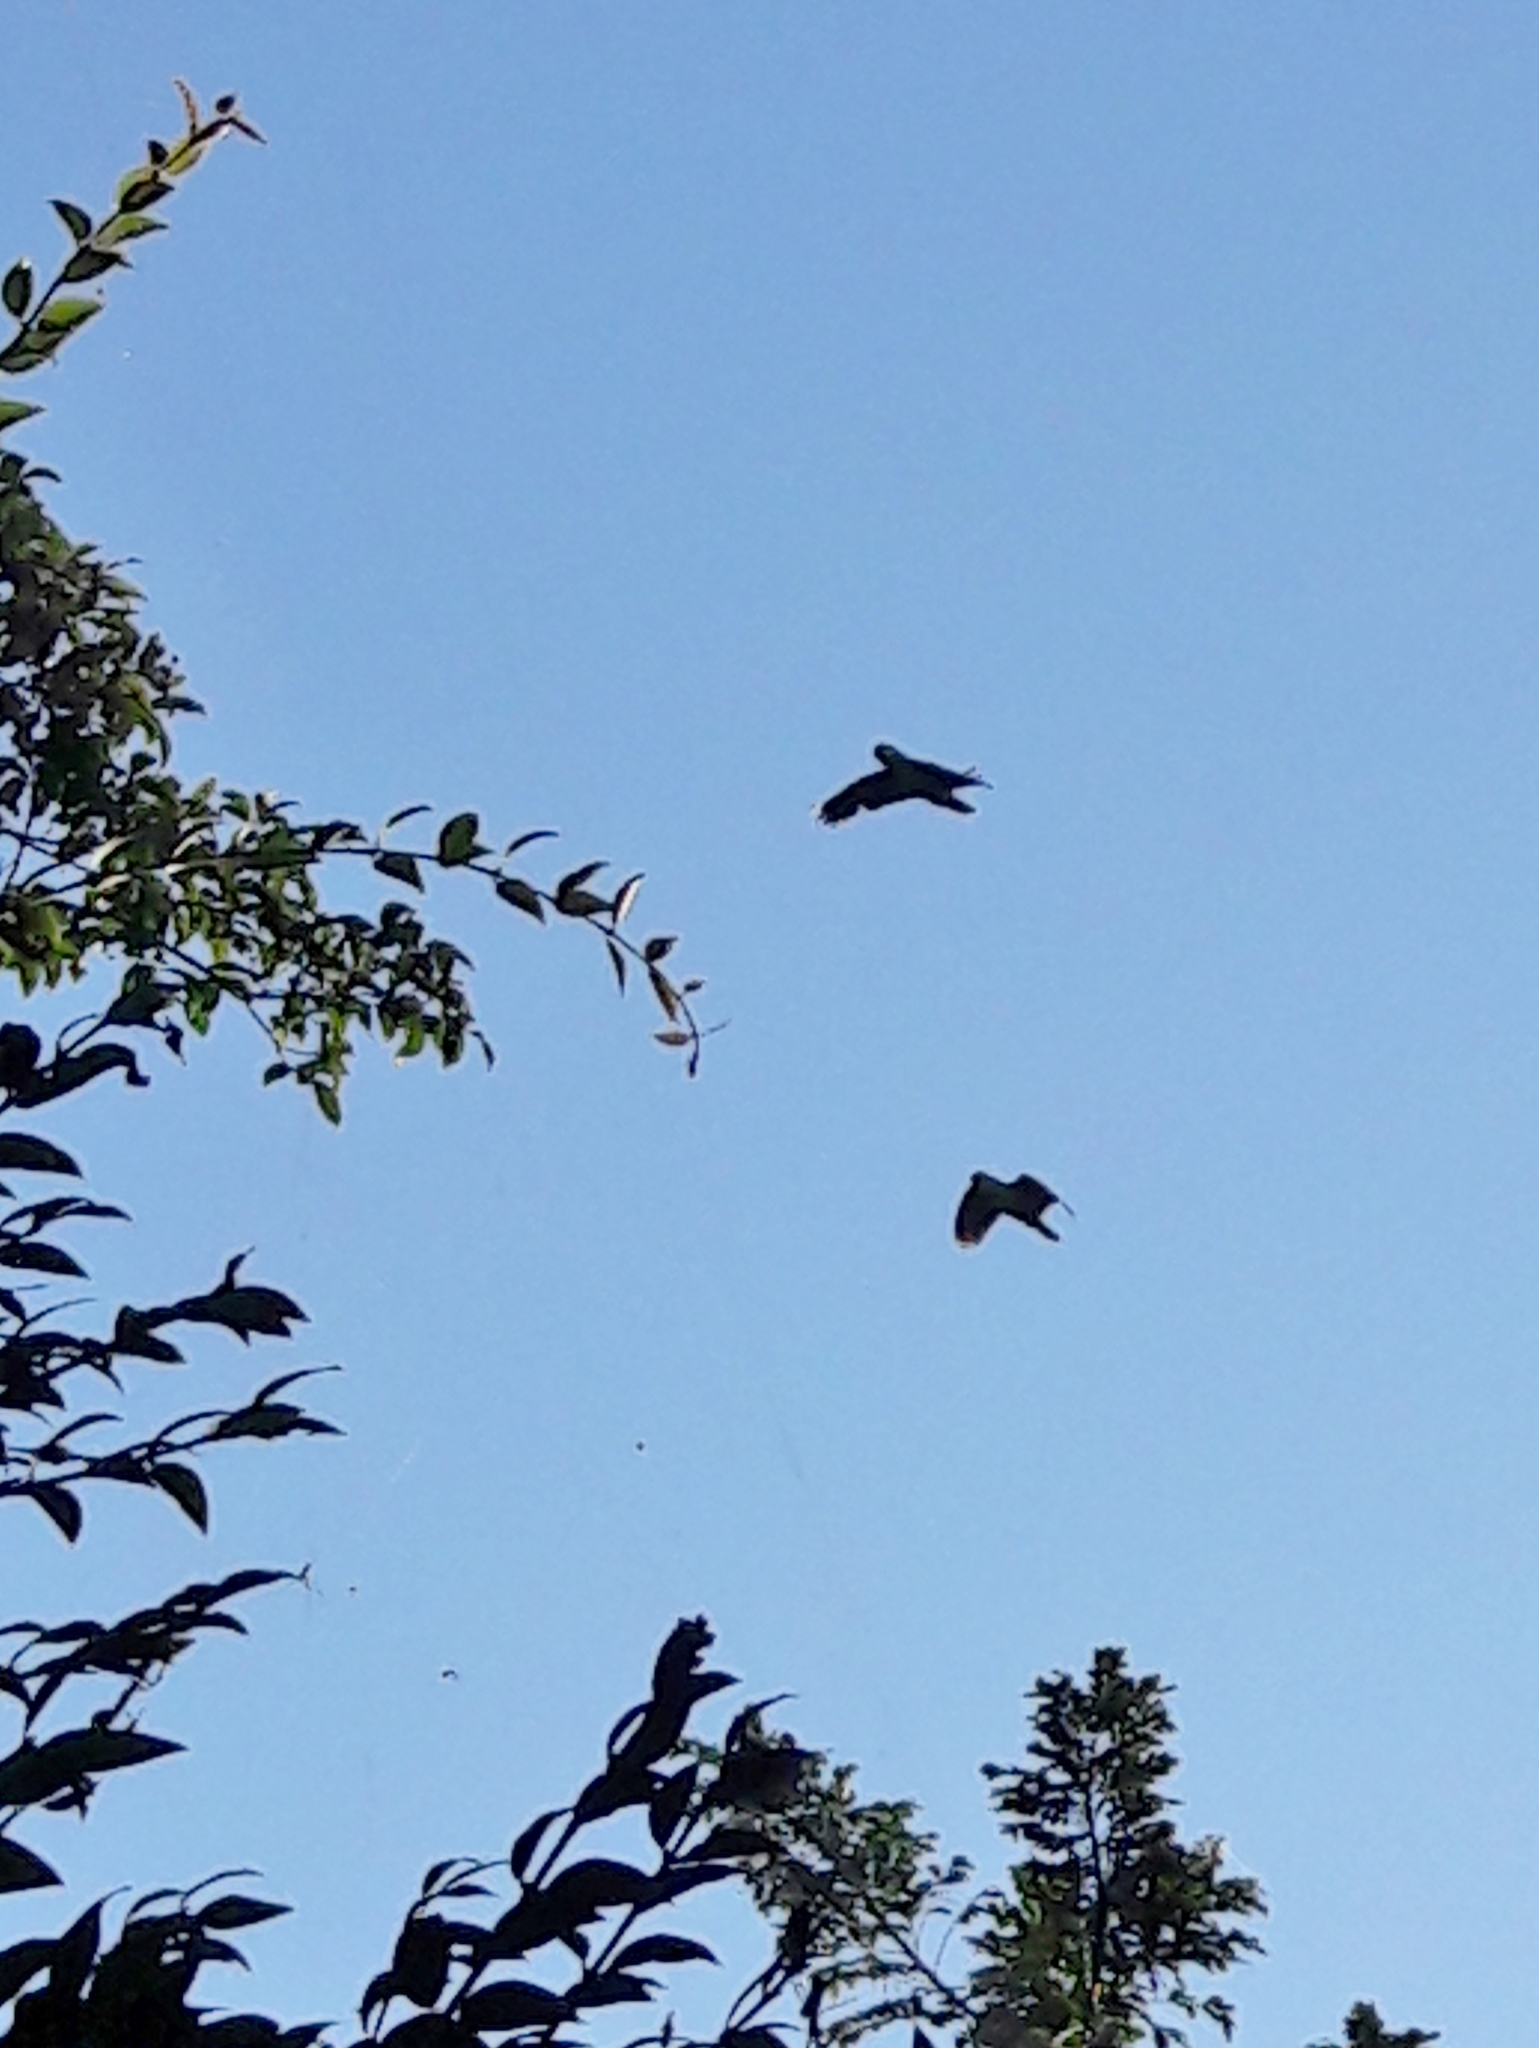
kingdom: Animalia
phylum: Chordata
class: Aves
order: Psittaciformes
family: Psittacidae
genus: Amazona
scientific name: Amazona
